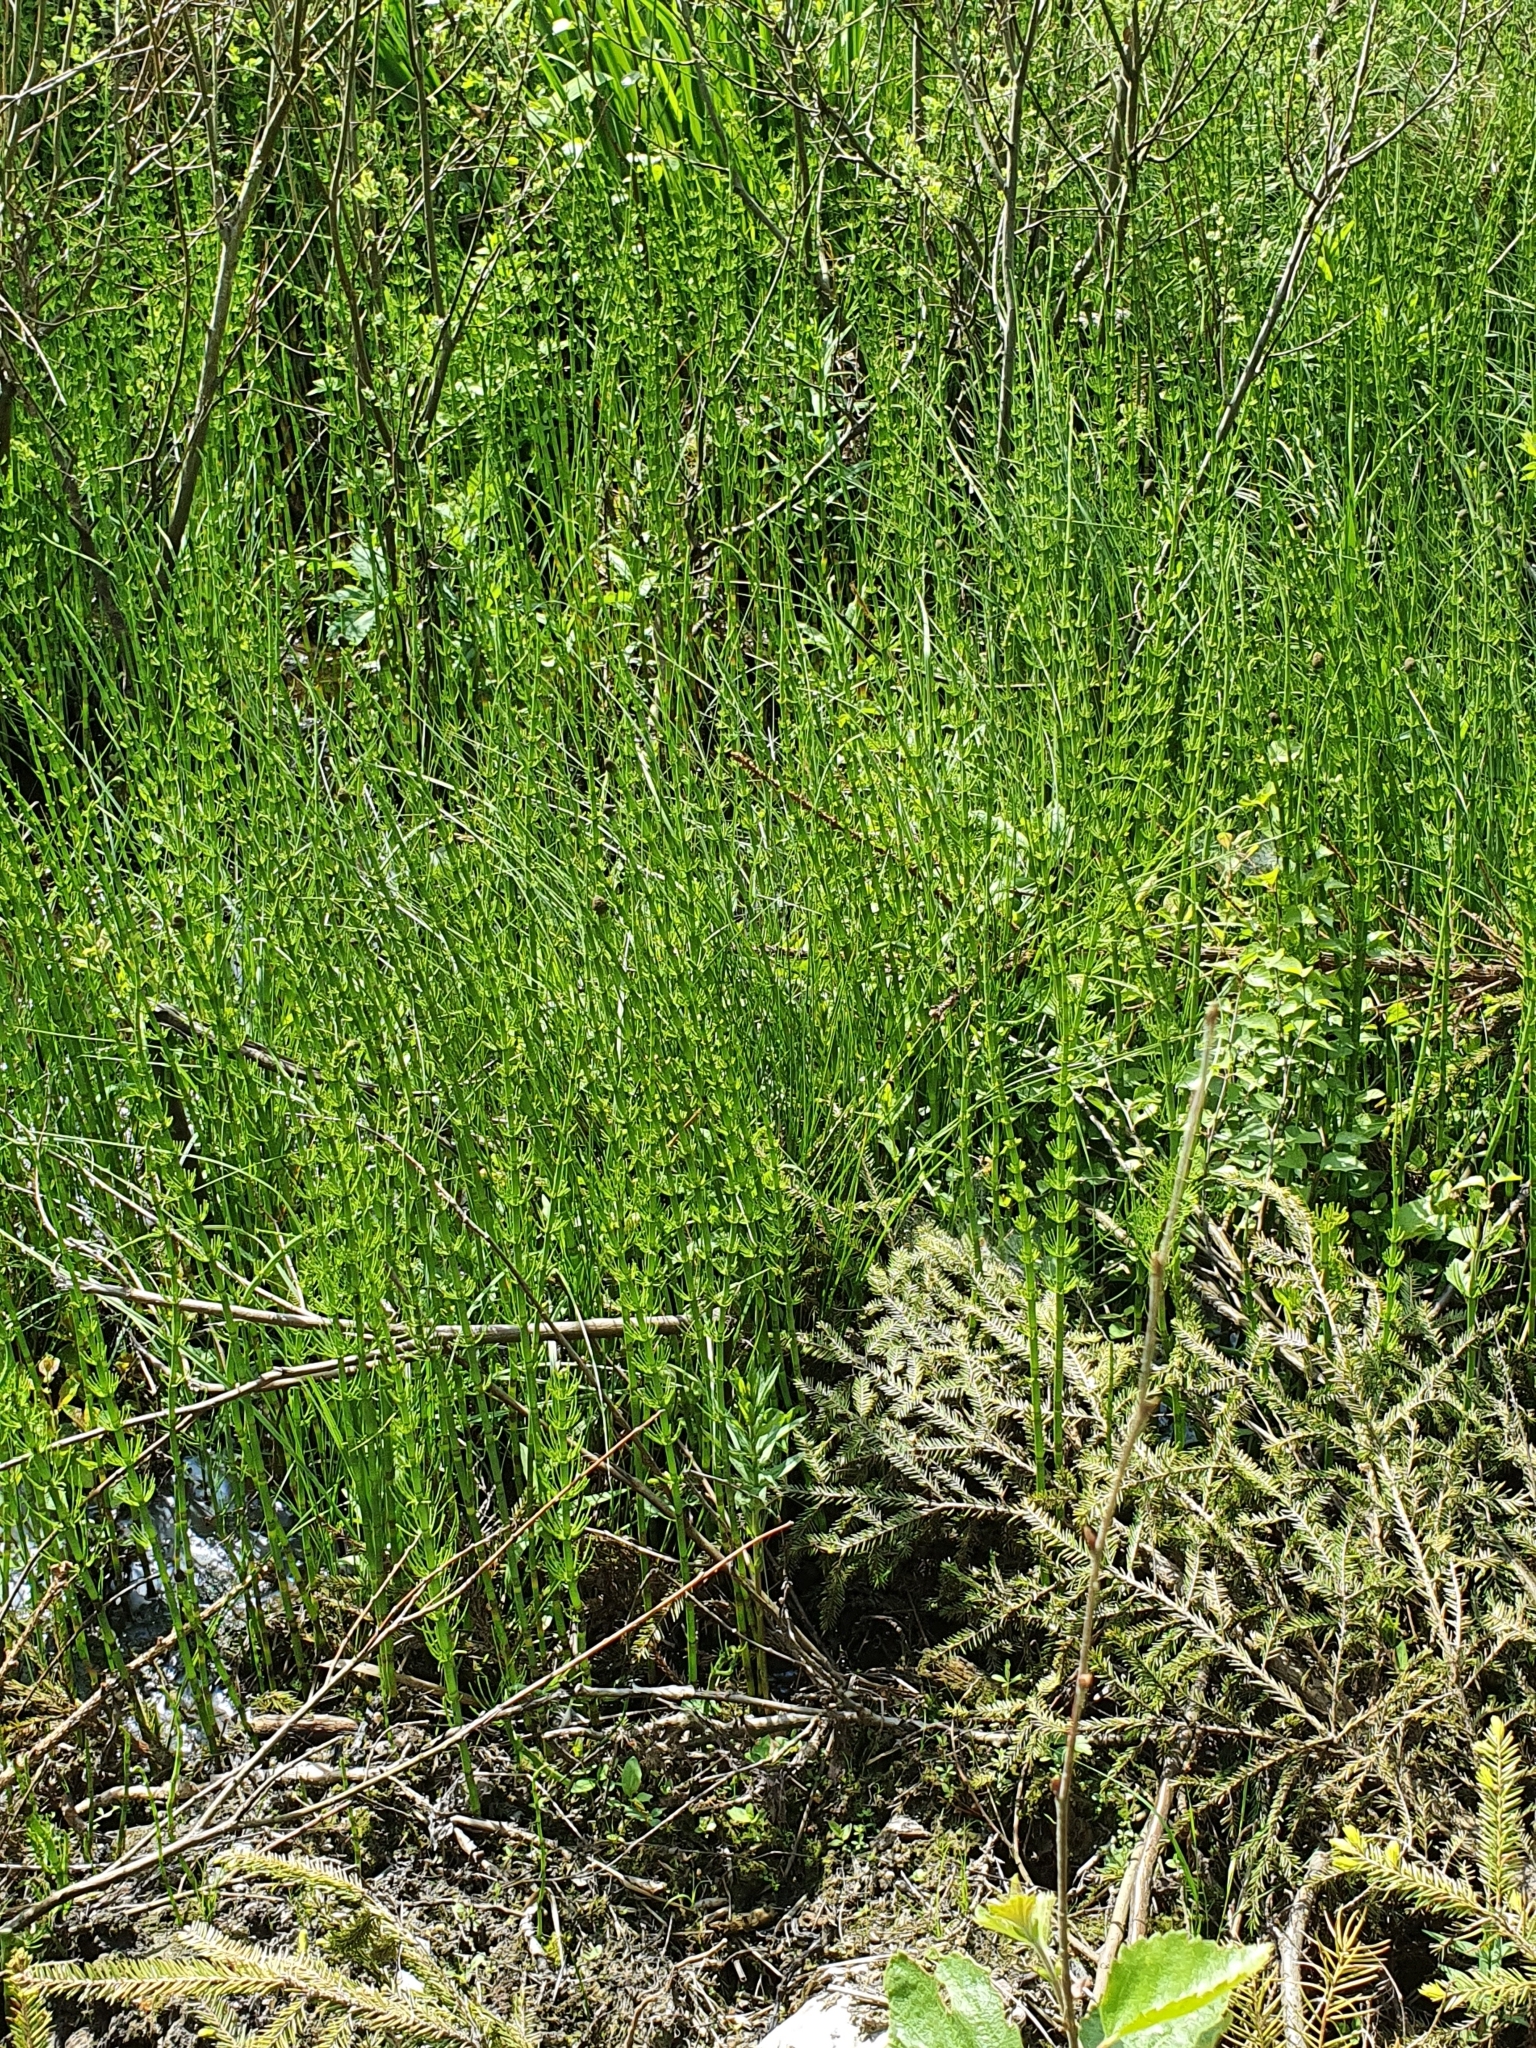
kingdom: Plantae
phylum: Tracheophyta
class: Polypodiopsida
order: Equisetales
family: Equisetaceae
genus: Equisetum
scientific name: Equisetum fluviatile
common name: Water horsetail
